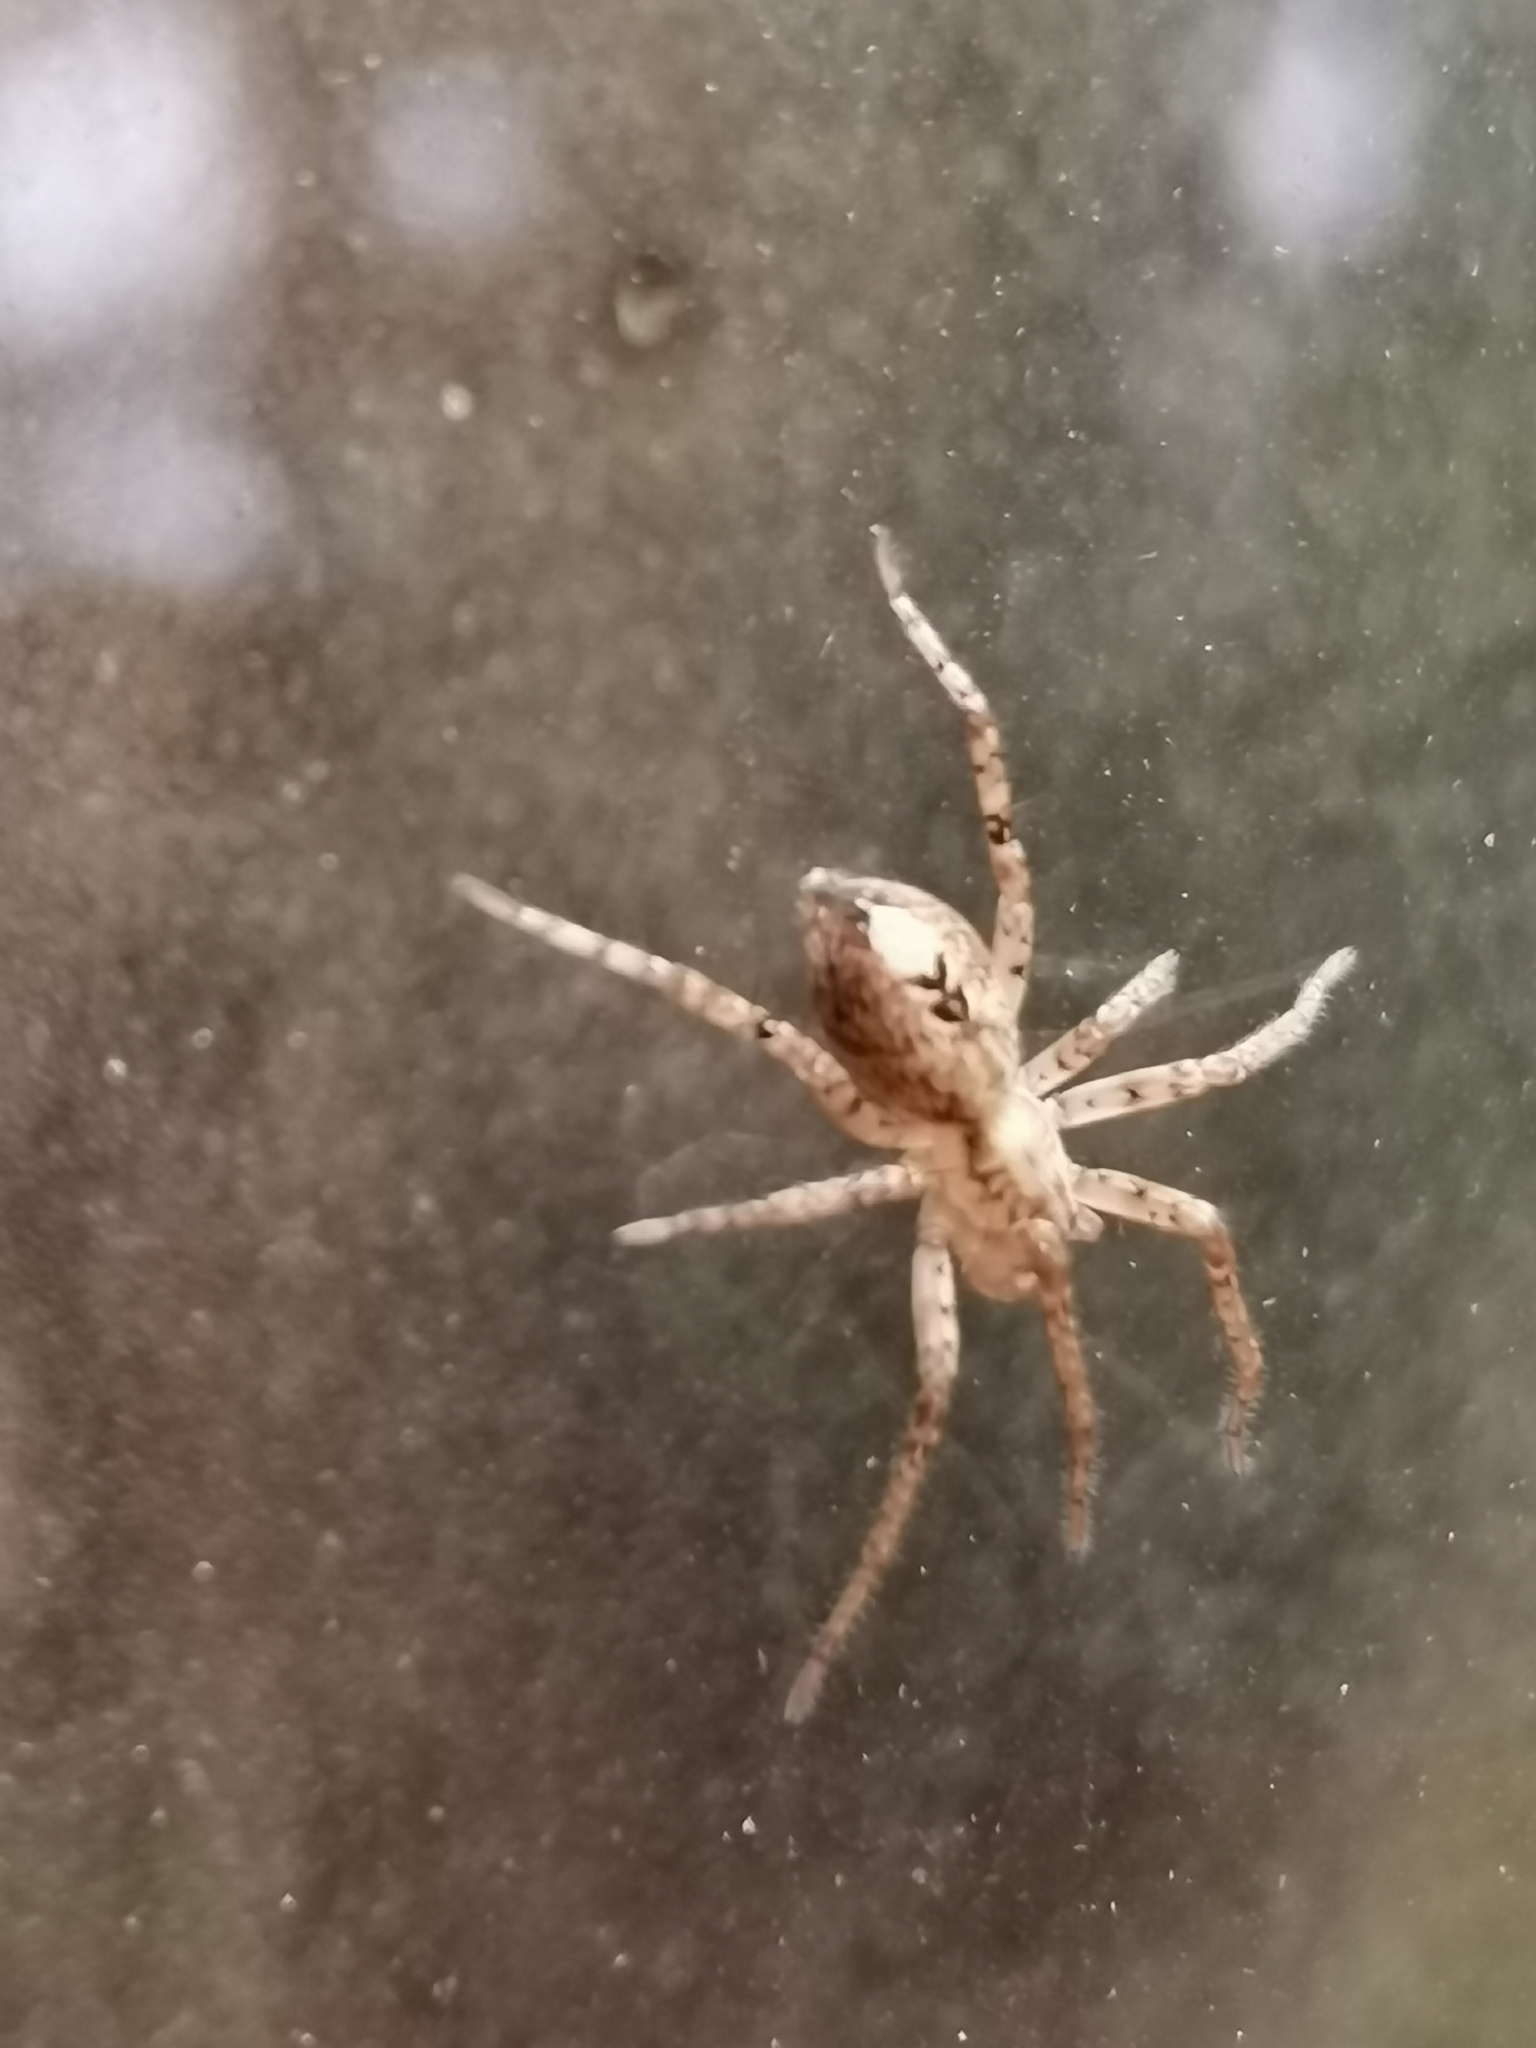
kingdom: Animalia
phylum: Arthropoda
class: Arachnida
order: Araneae
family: Anyphaenidae
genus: Anyphaena
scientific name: Anyphaena accentuata
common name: Buzzing spider
